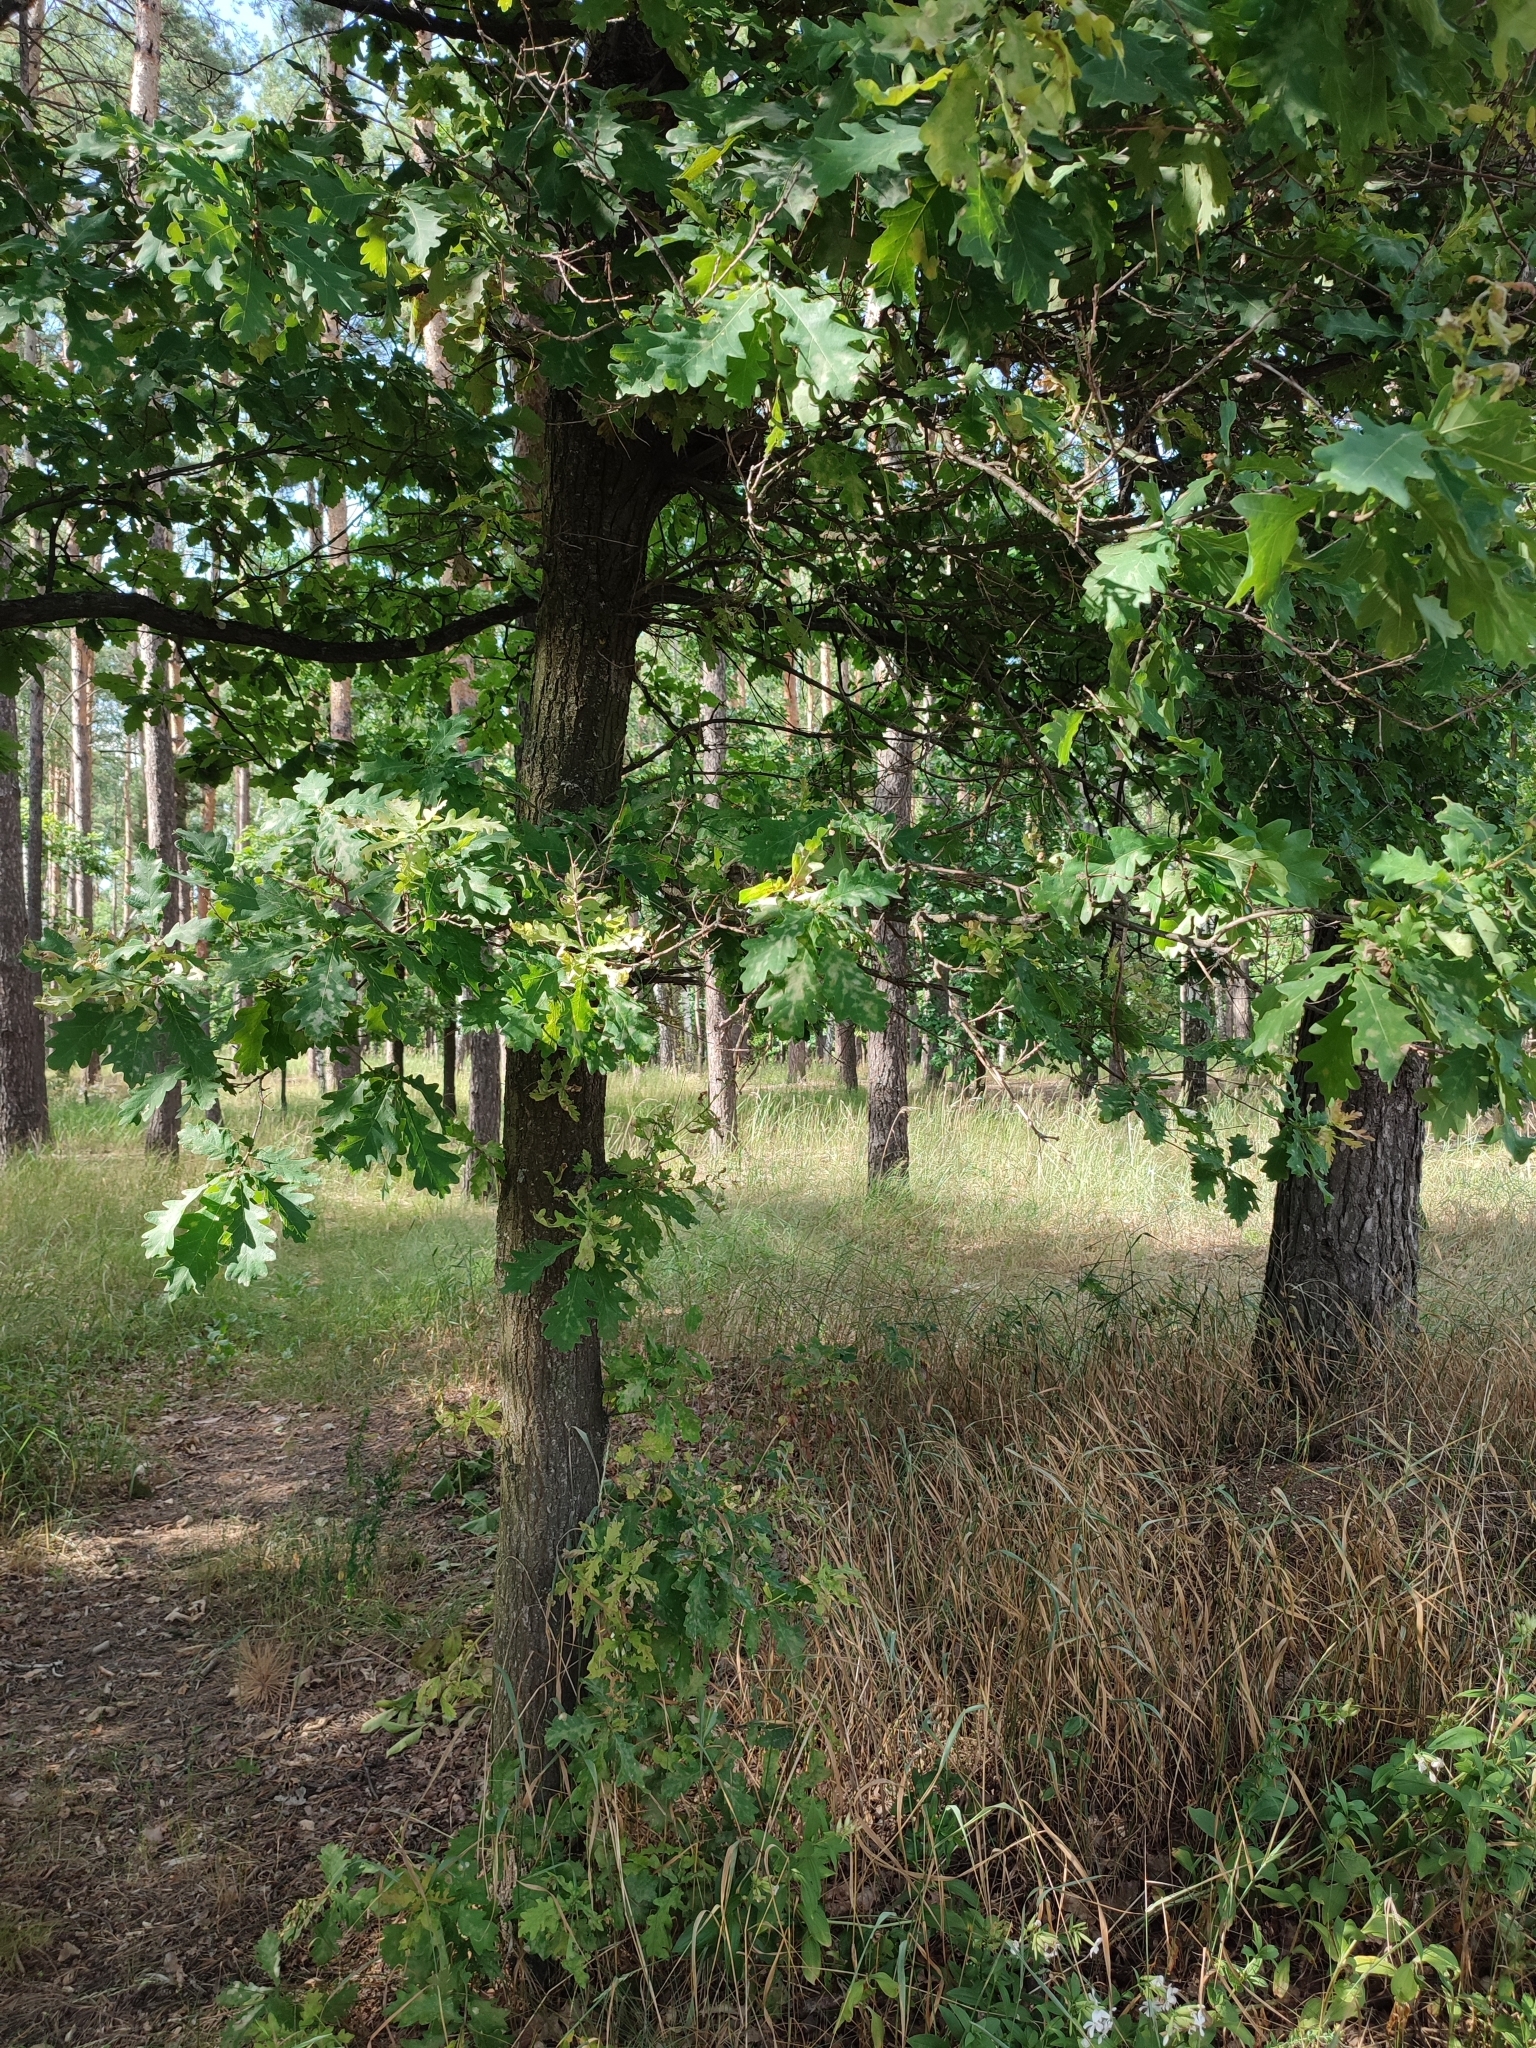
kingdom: Plantae
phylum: Tracheophyta
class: Magnoliopsida
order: Fagales
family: Fagaceae
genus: Quercus
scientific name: Quercus robur
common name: Pedunculate oak
